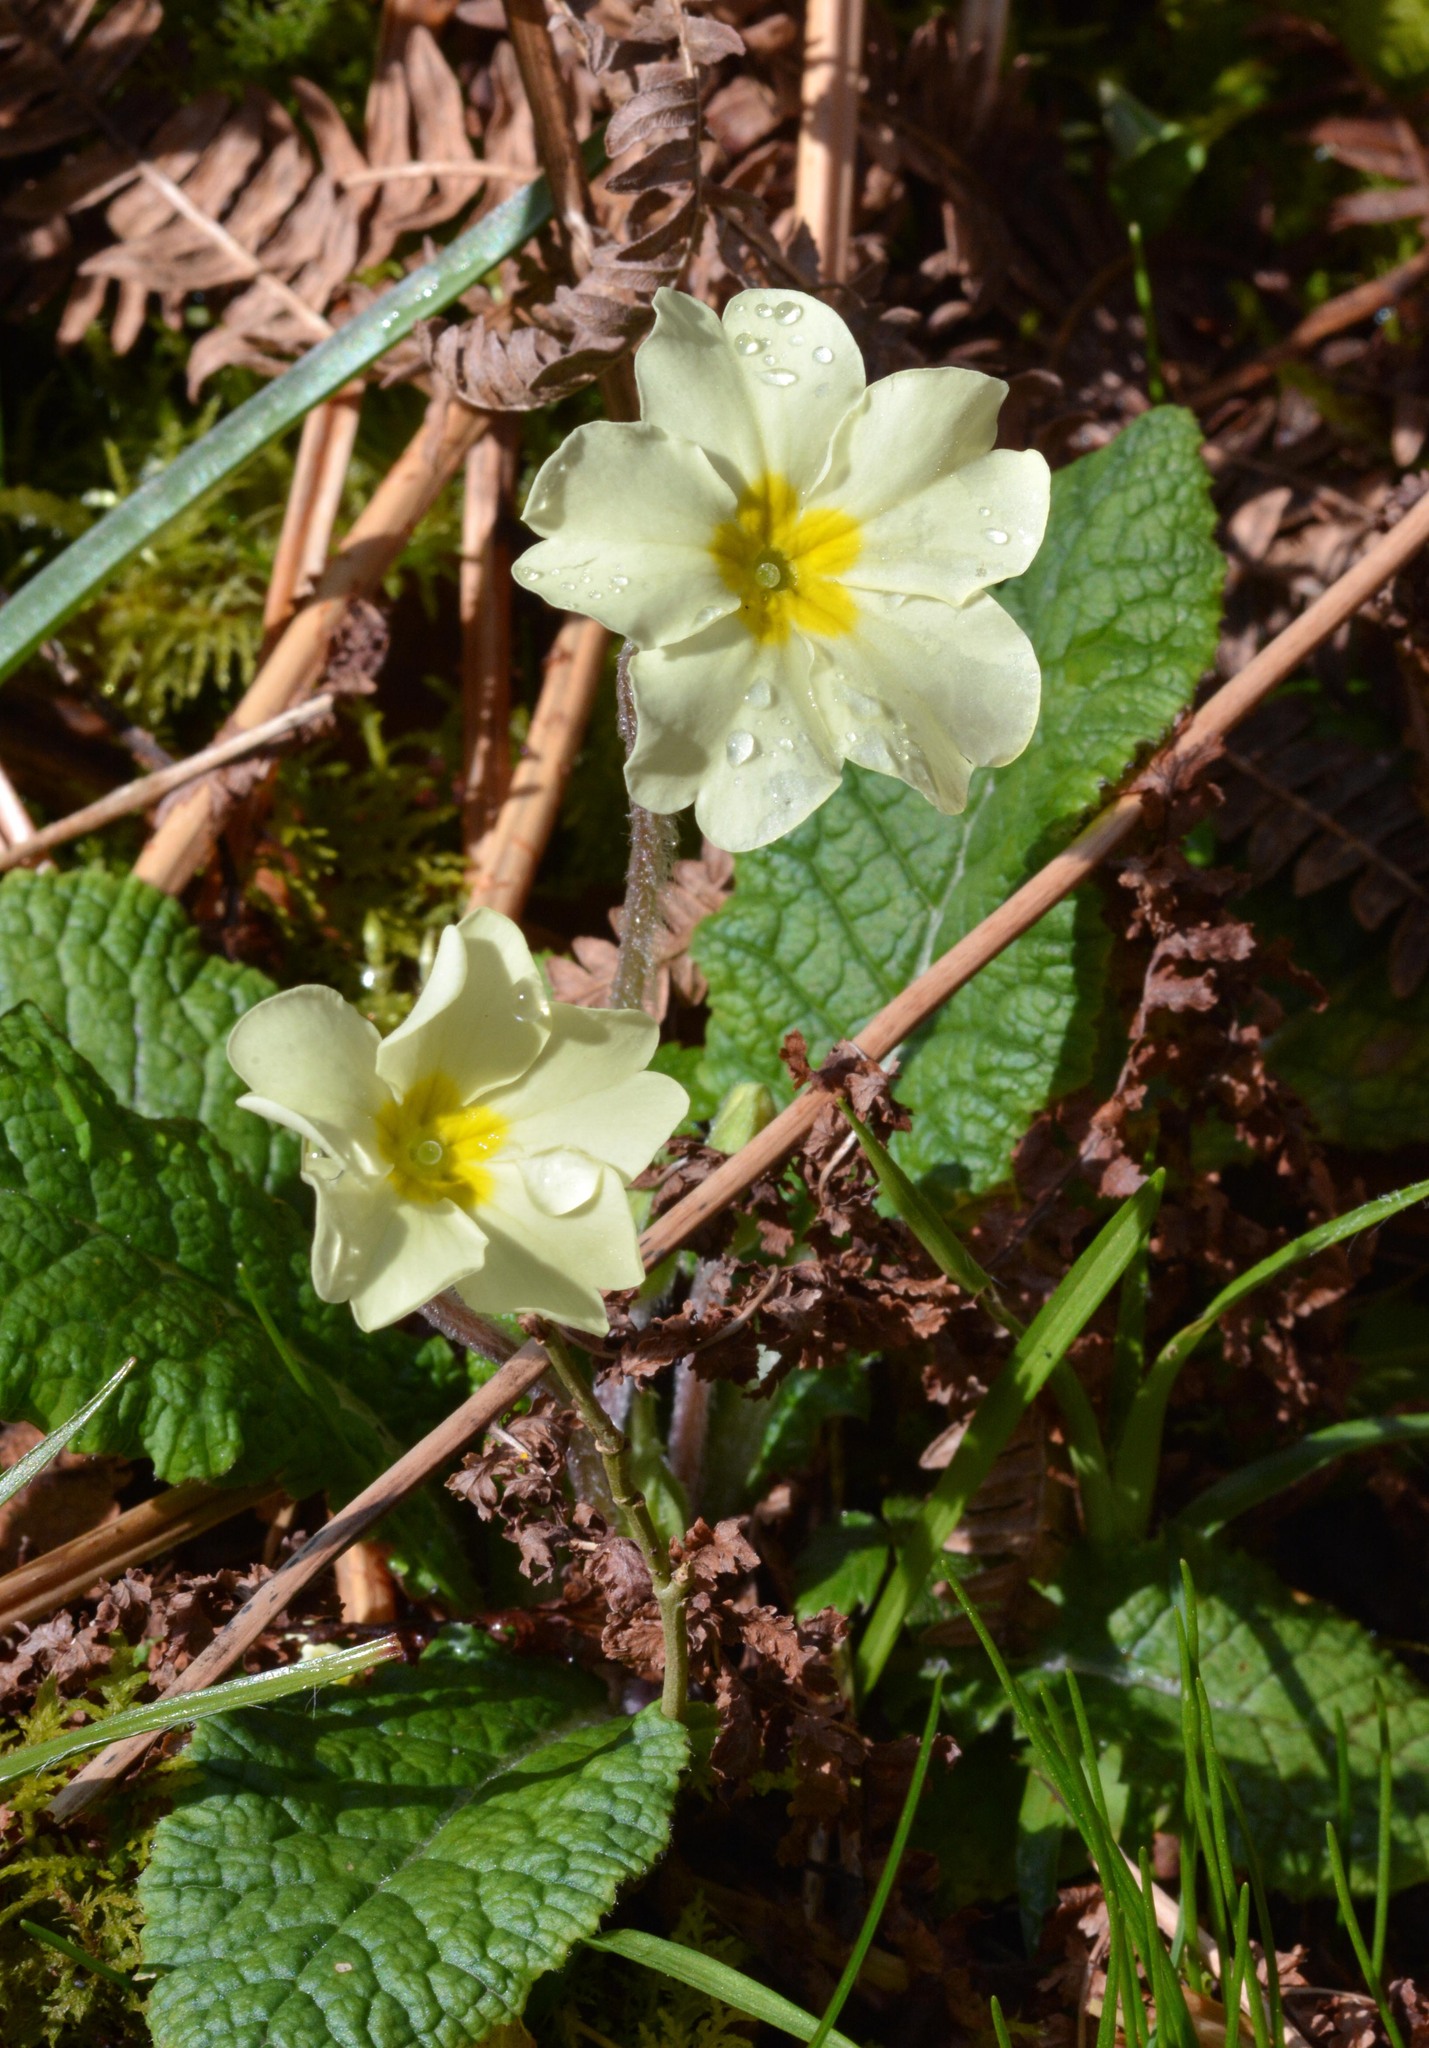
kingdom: Plantae
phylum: Tracheophyta
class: Magnoliopsida
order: Ericales
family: Primulaceae
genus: Primula
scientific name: Primula vulgaris
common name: Primrose
